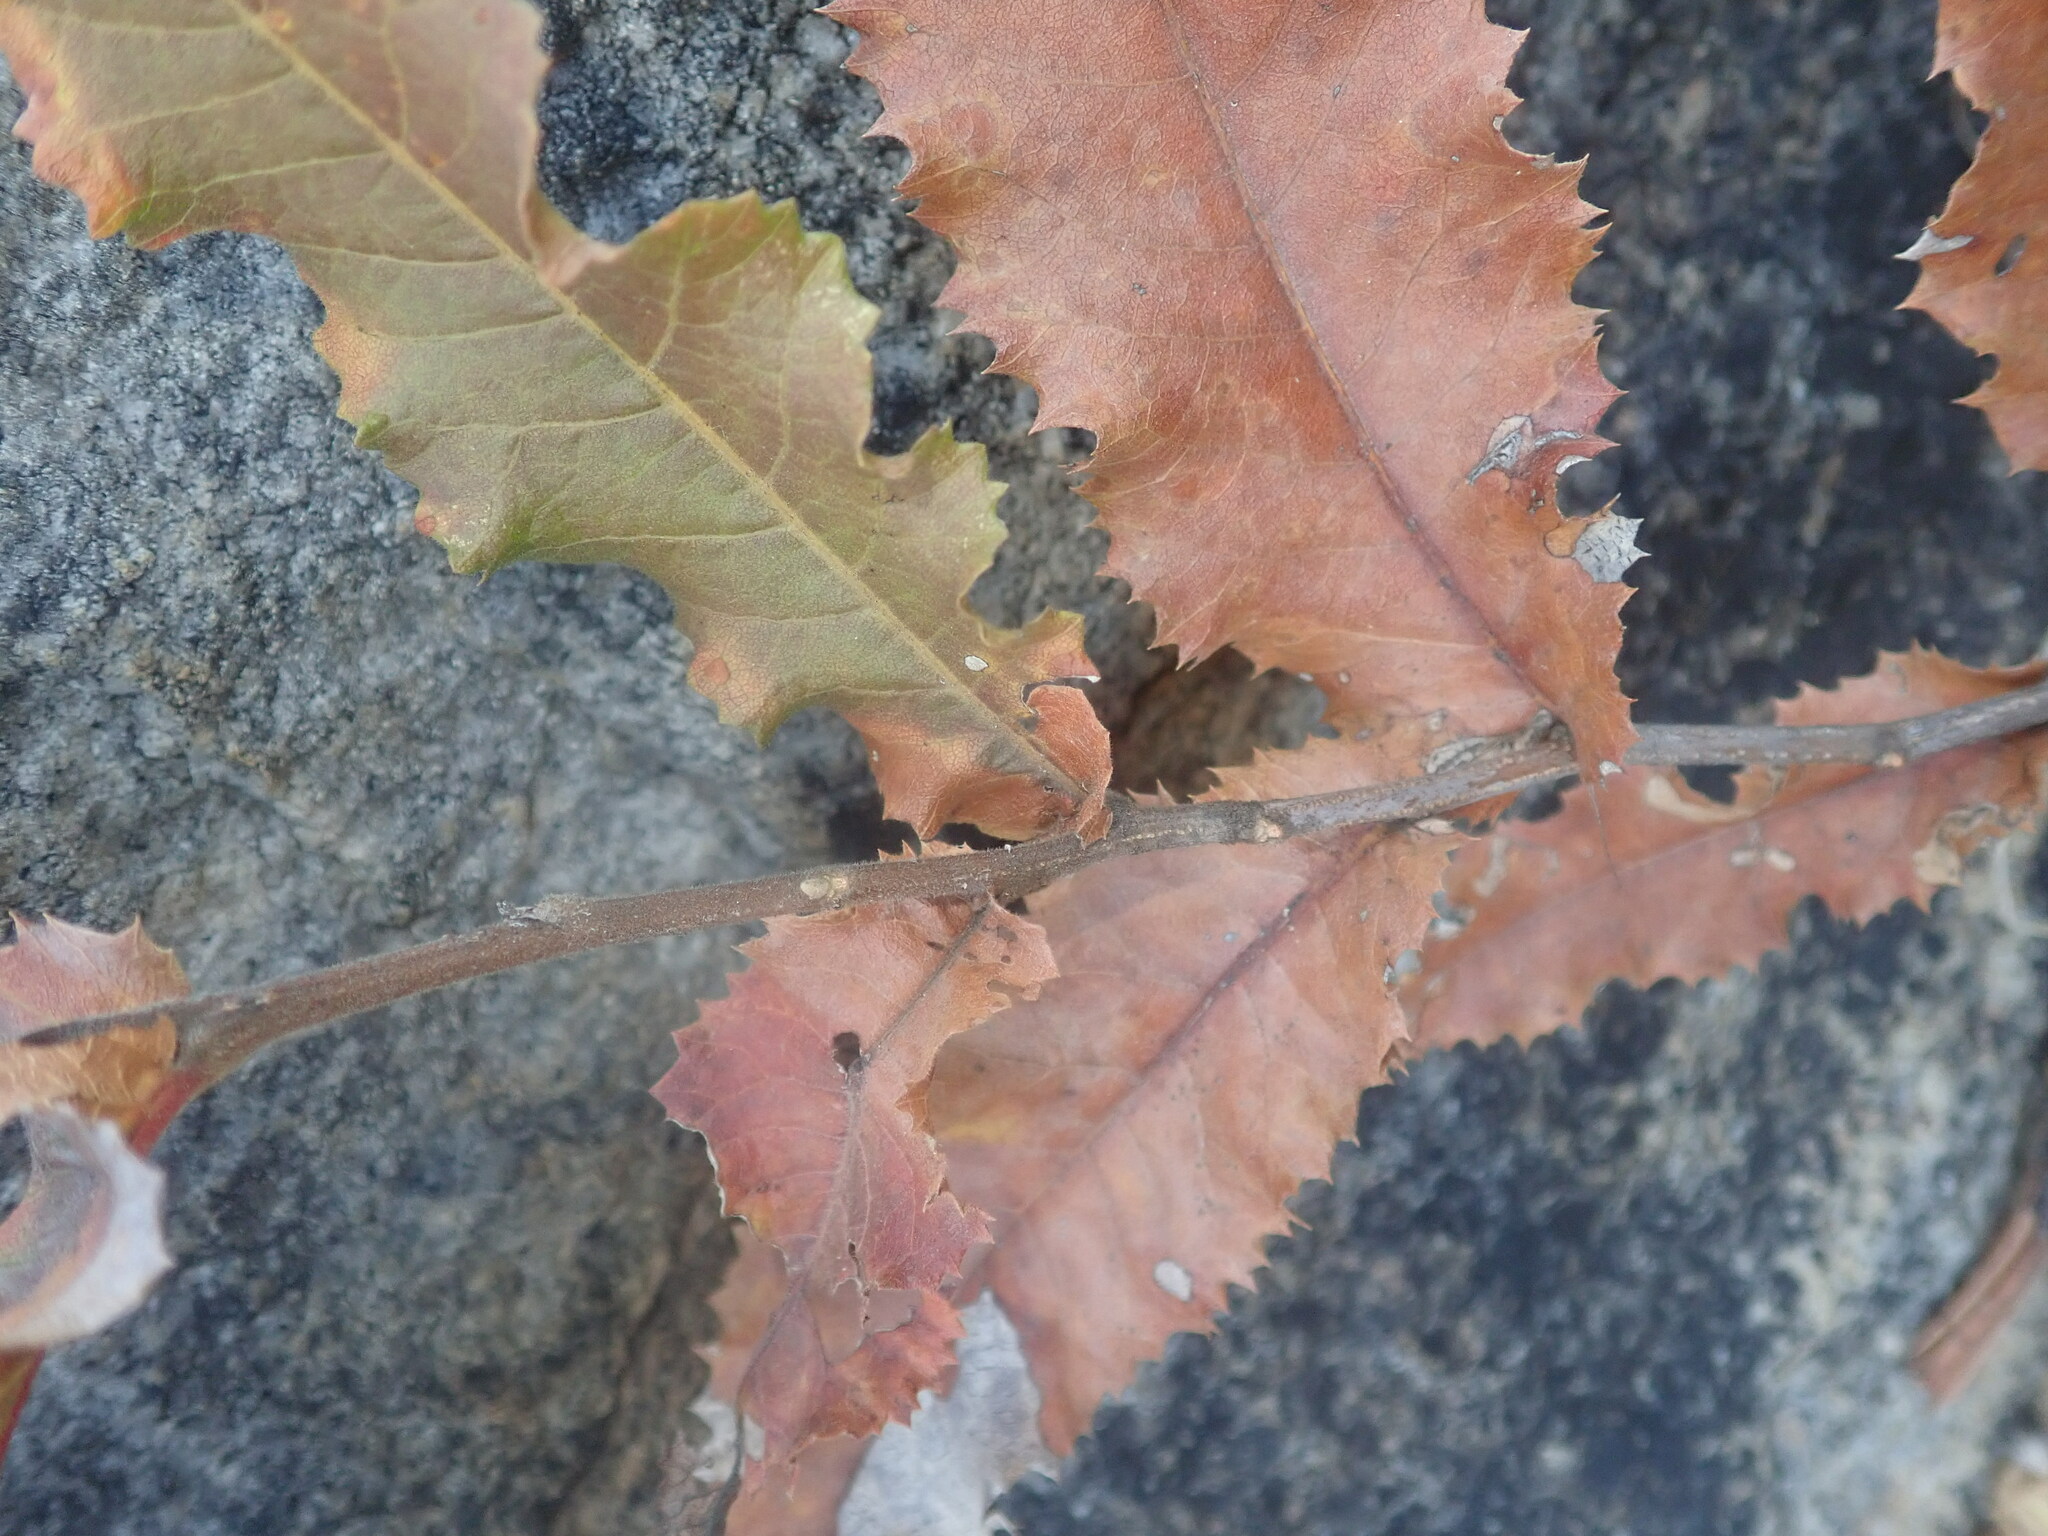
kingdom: Plantae
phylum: Tracheophyta
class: Magnoliopsida
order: Sapindales
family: Sapindaceae
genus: Pappea
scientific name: Pappea capensis
